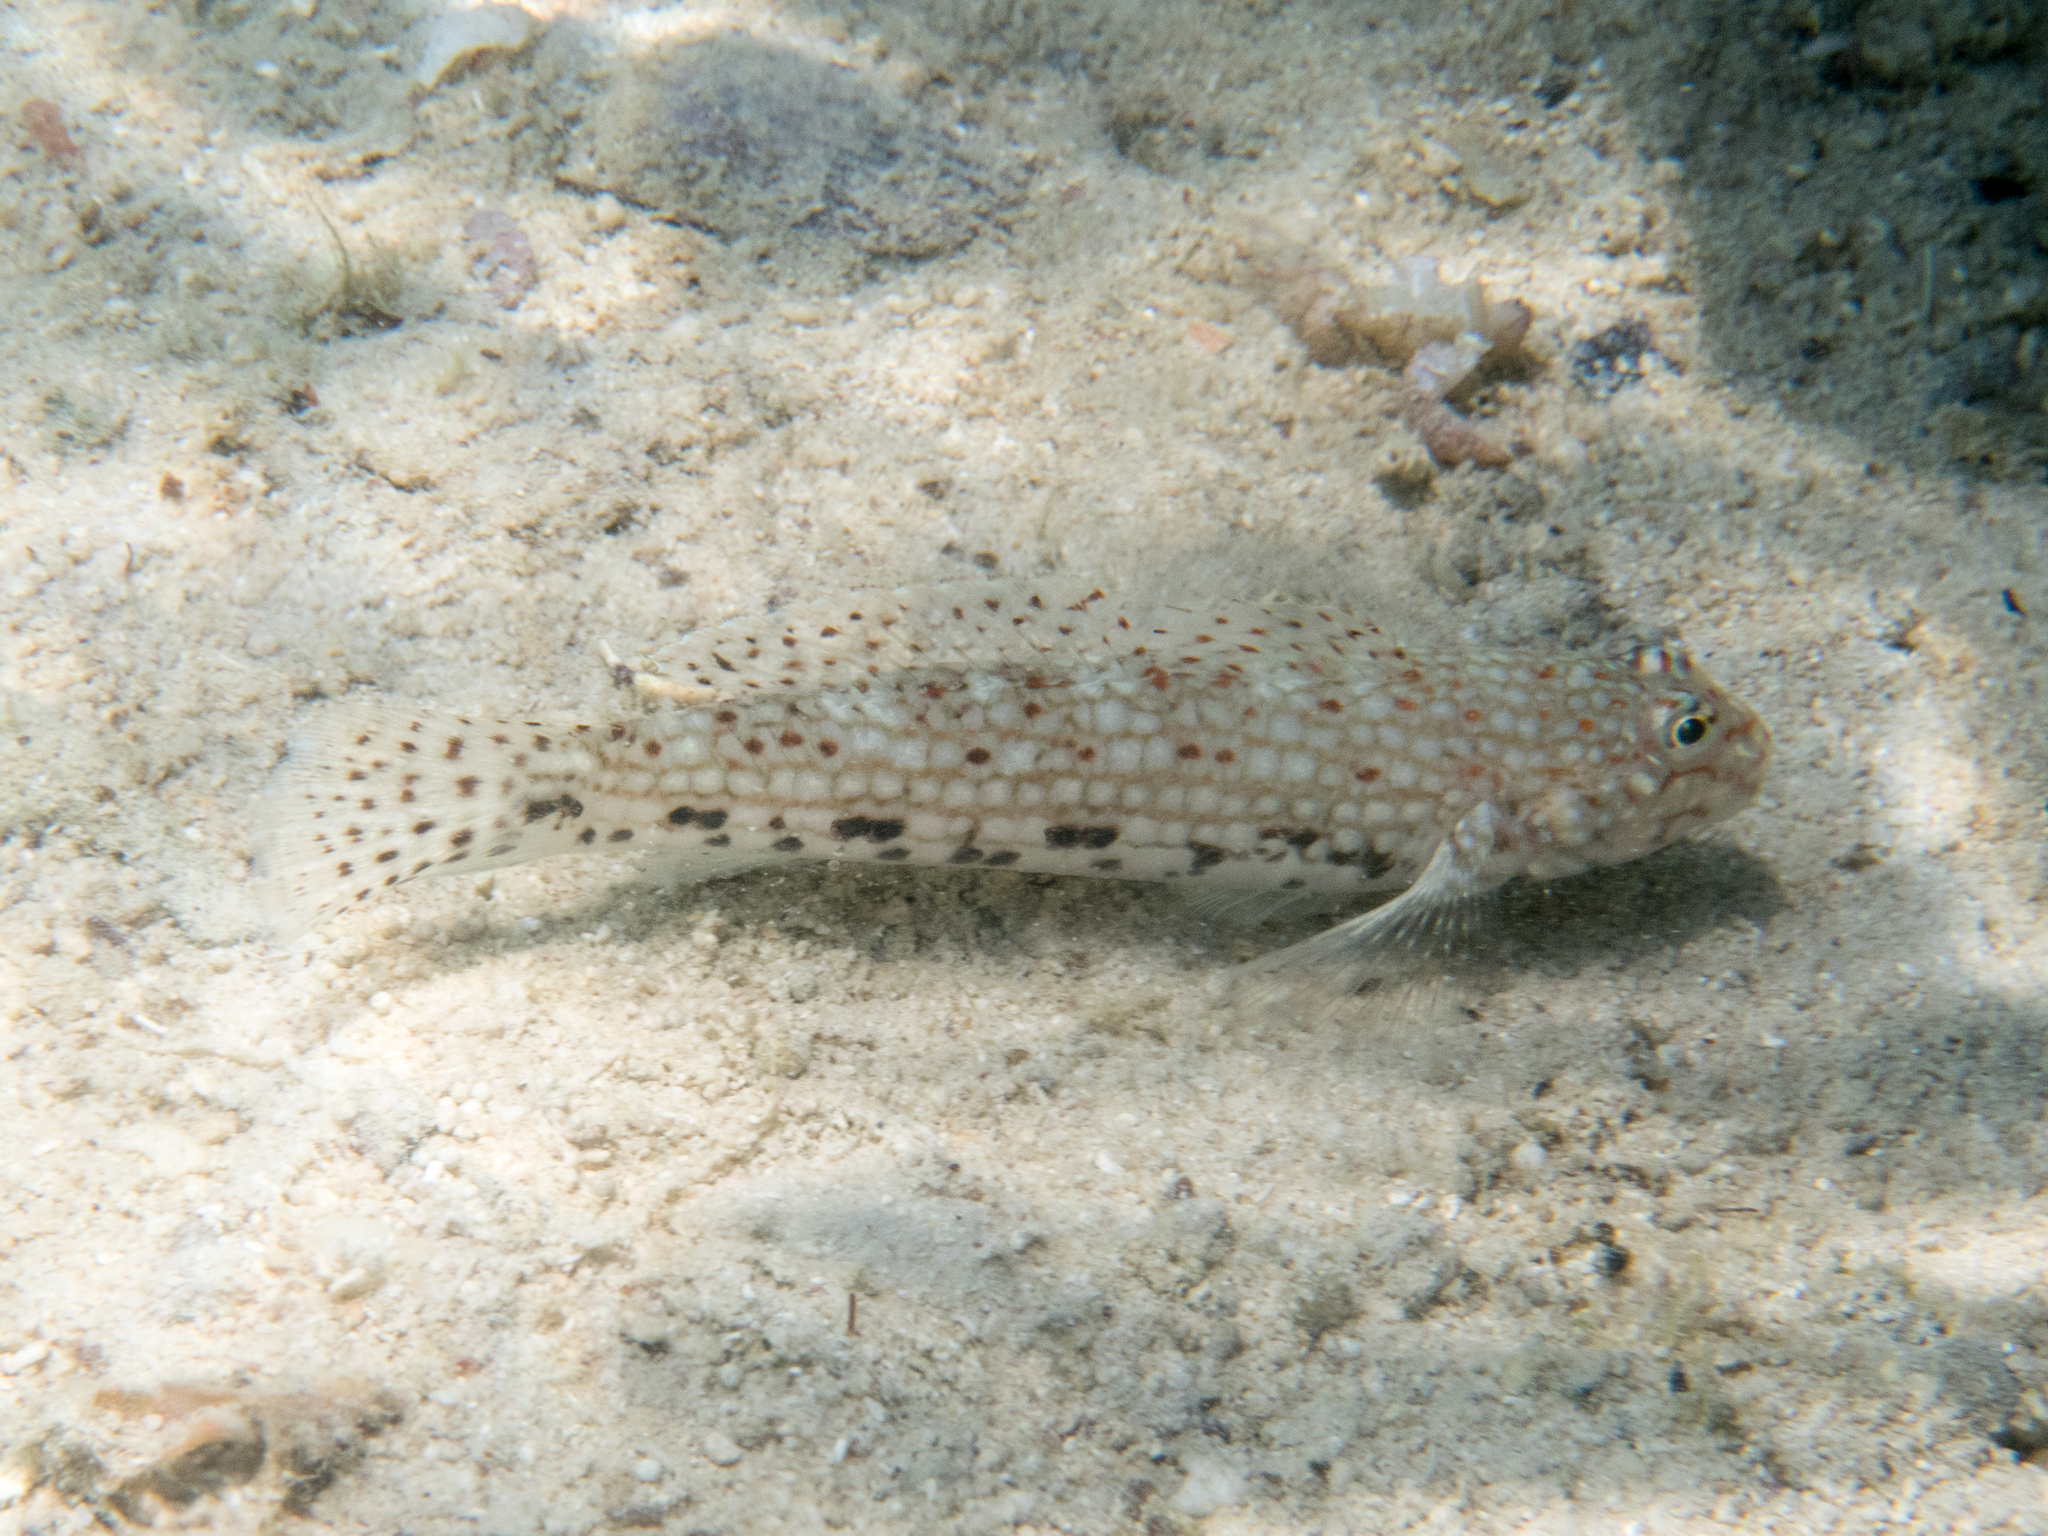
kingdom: Animalia
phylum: Chordata
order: Perciformes
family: Gobiidae
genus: Istigobius
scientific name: Istigobius decoratus
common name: Decorated goby
